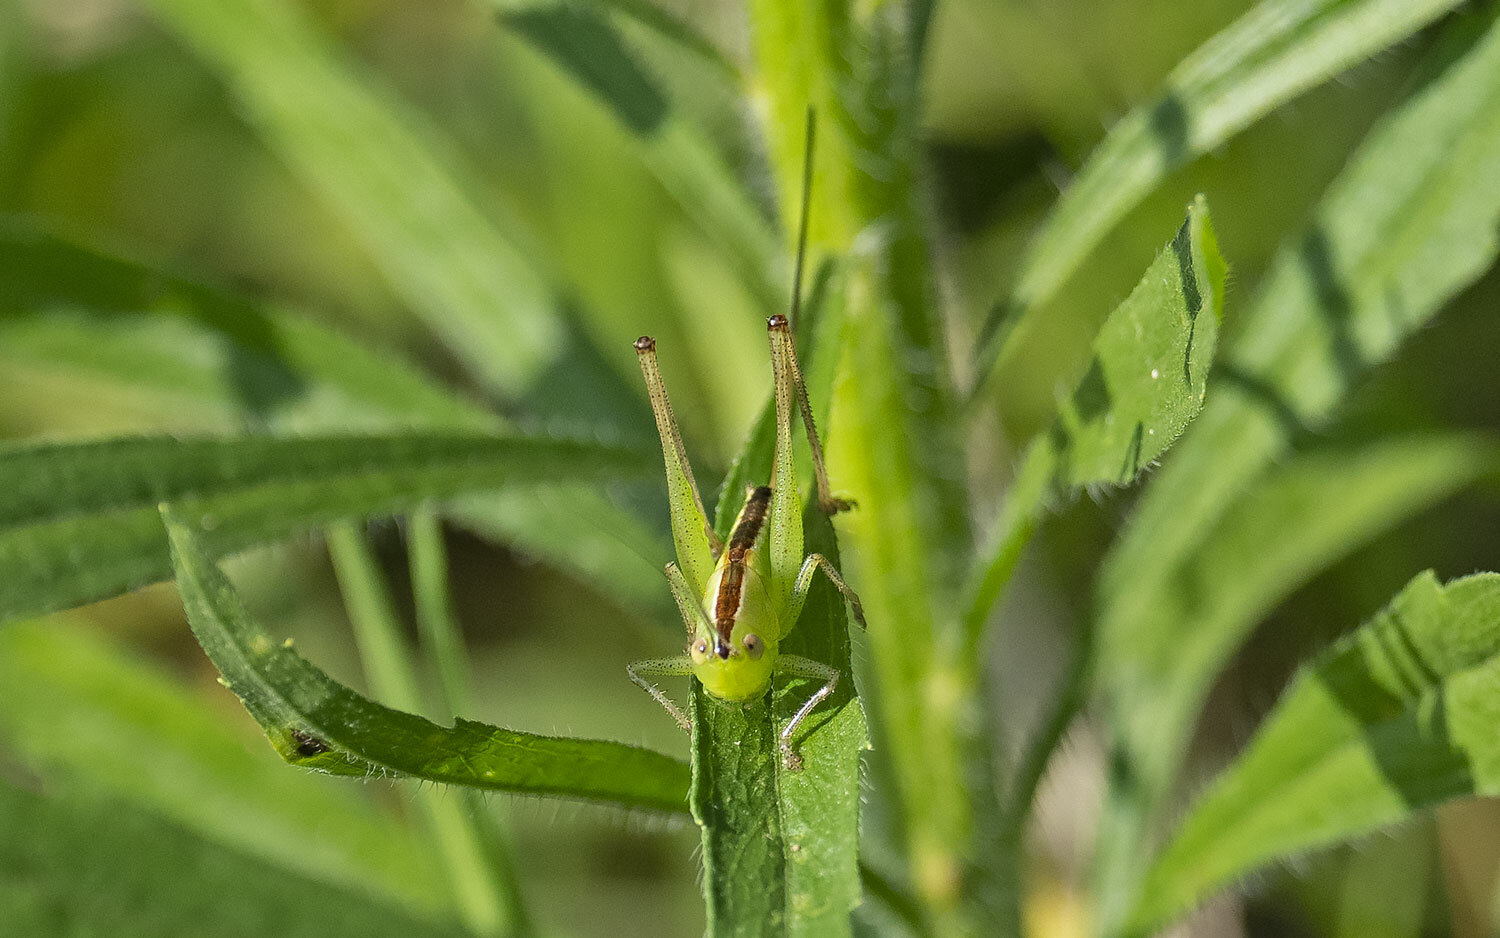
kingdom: Animalia
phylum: Arthropoda
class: Insecta
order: Orthoptera
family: Tettigoniidae
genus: Conocephalus
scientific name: Conocephalus strictus
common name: Straight-lanced katydid
